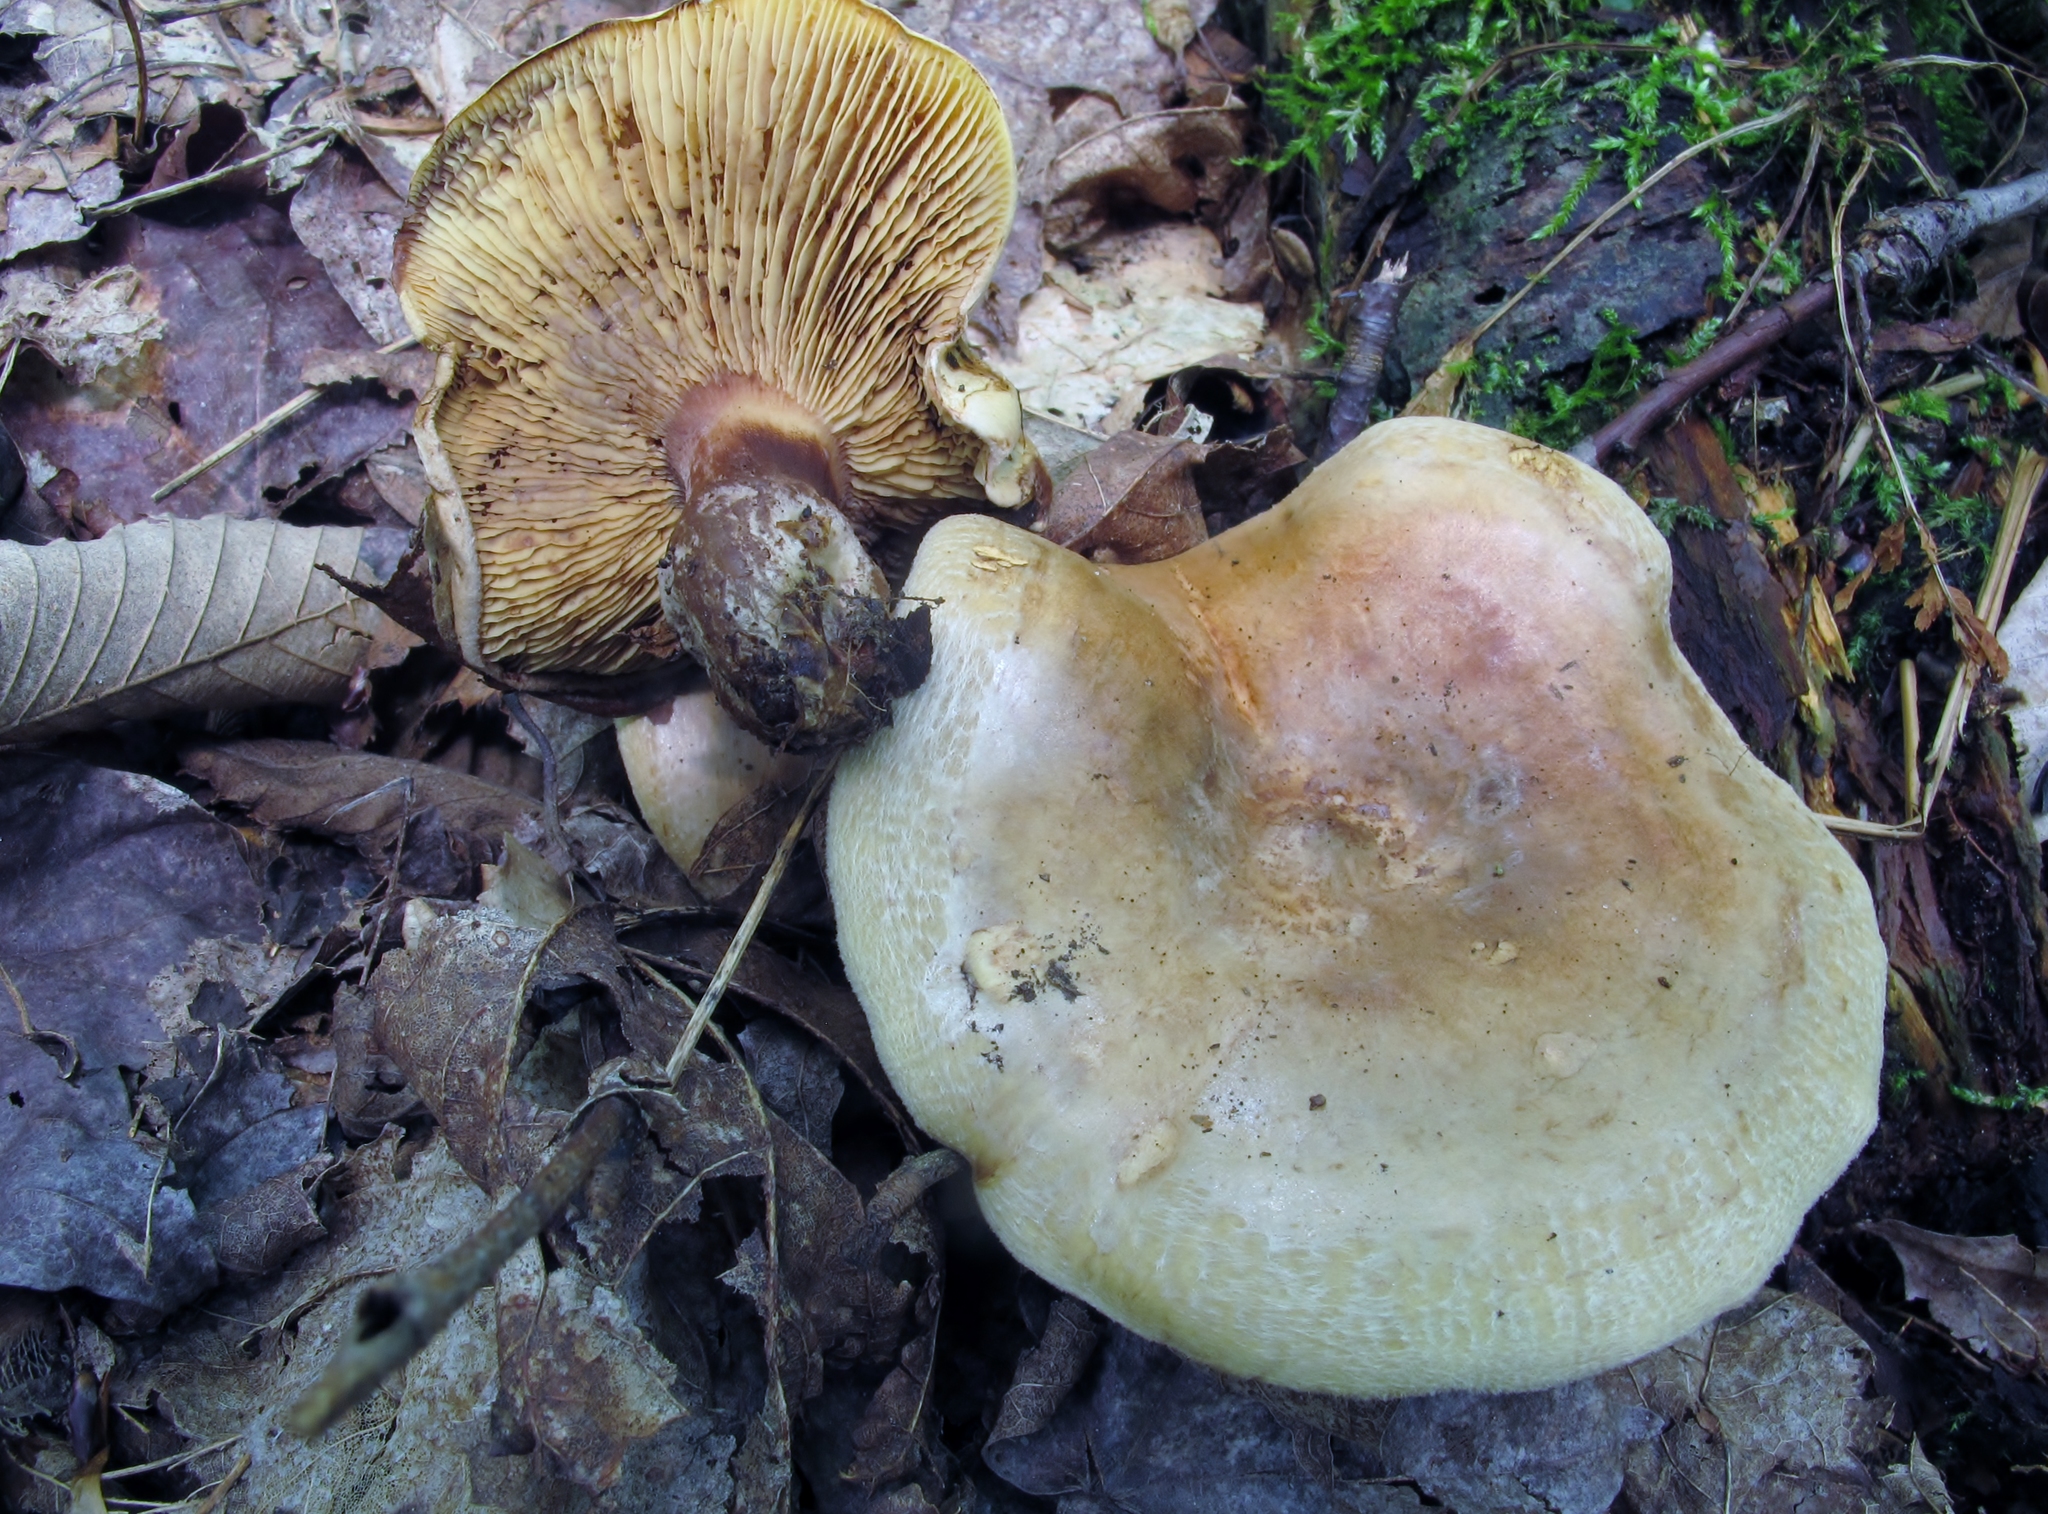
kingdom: Fungi
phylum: Basidiomycota
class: Agaricomycetes
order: Boletales
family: Paxillaceae
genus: Paxillus
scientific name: Paxillus involutus
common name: Brown roll rim
